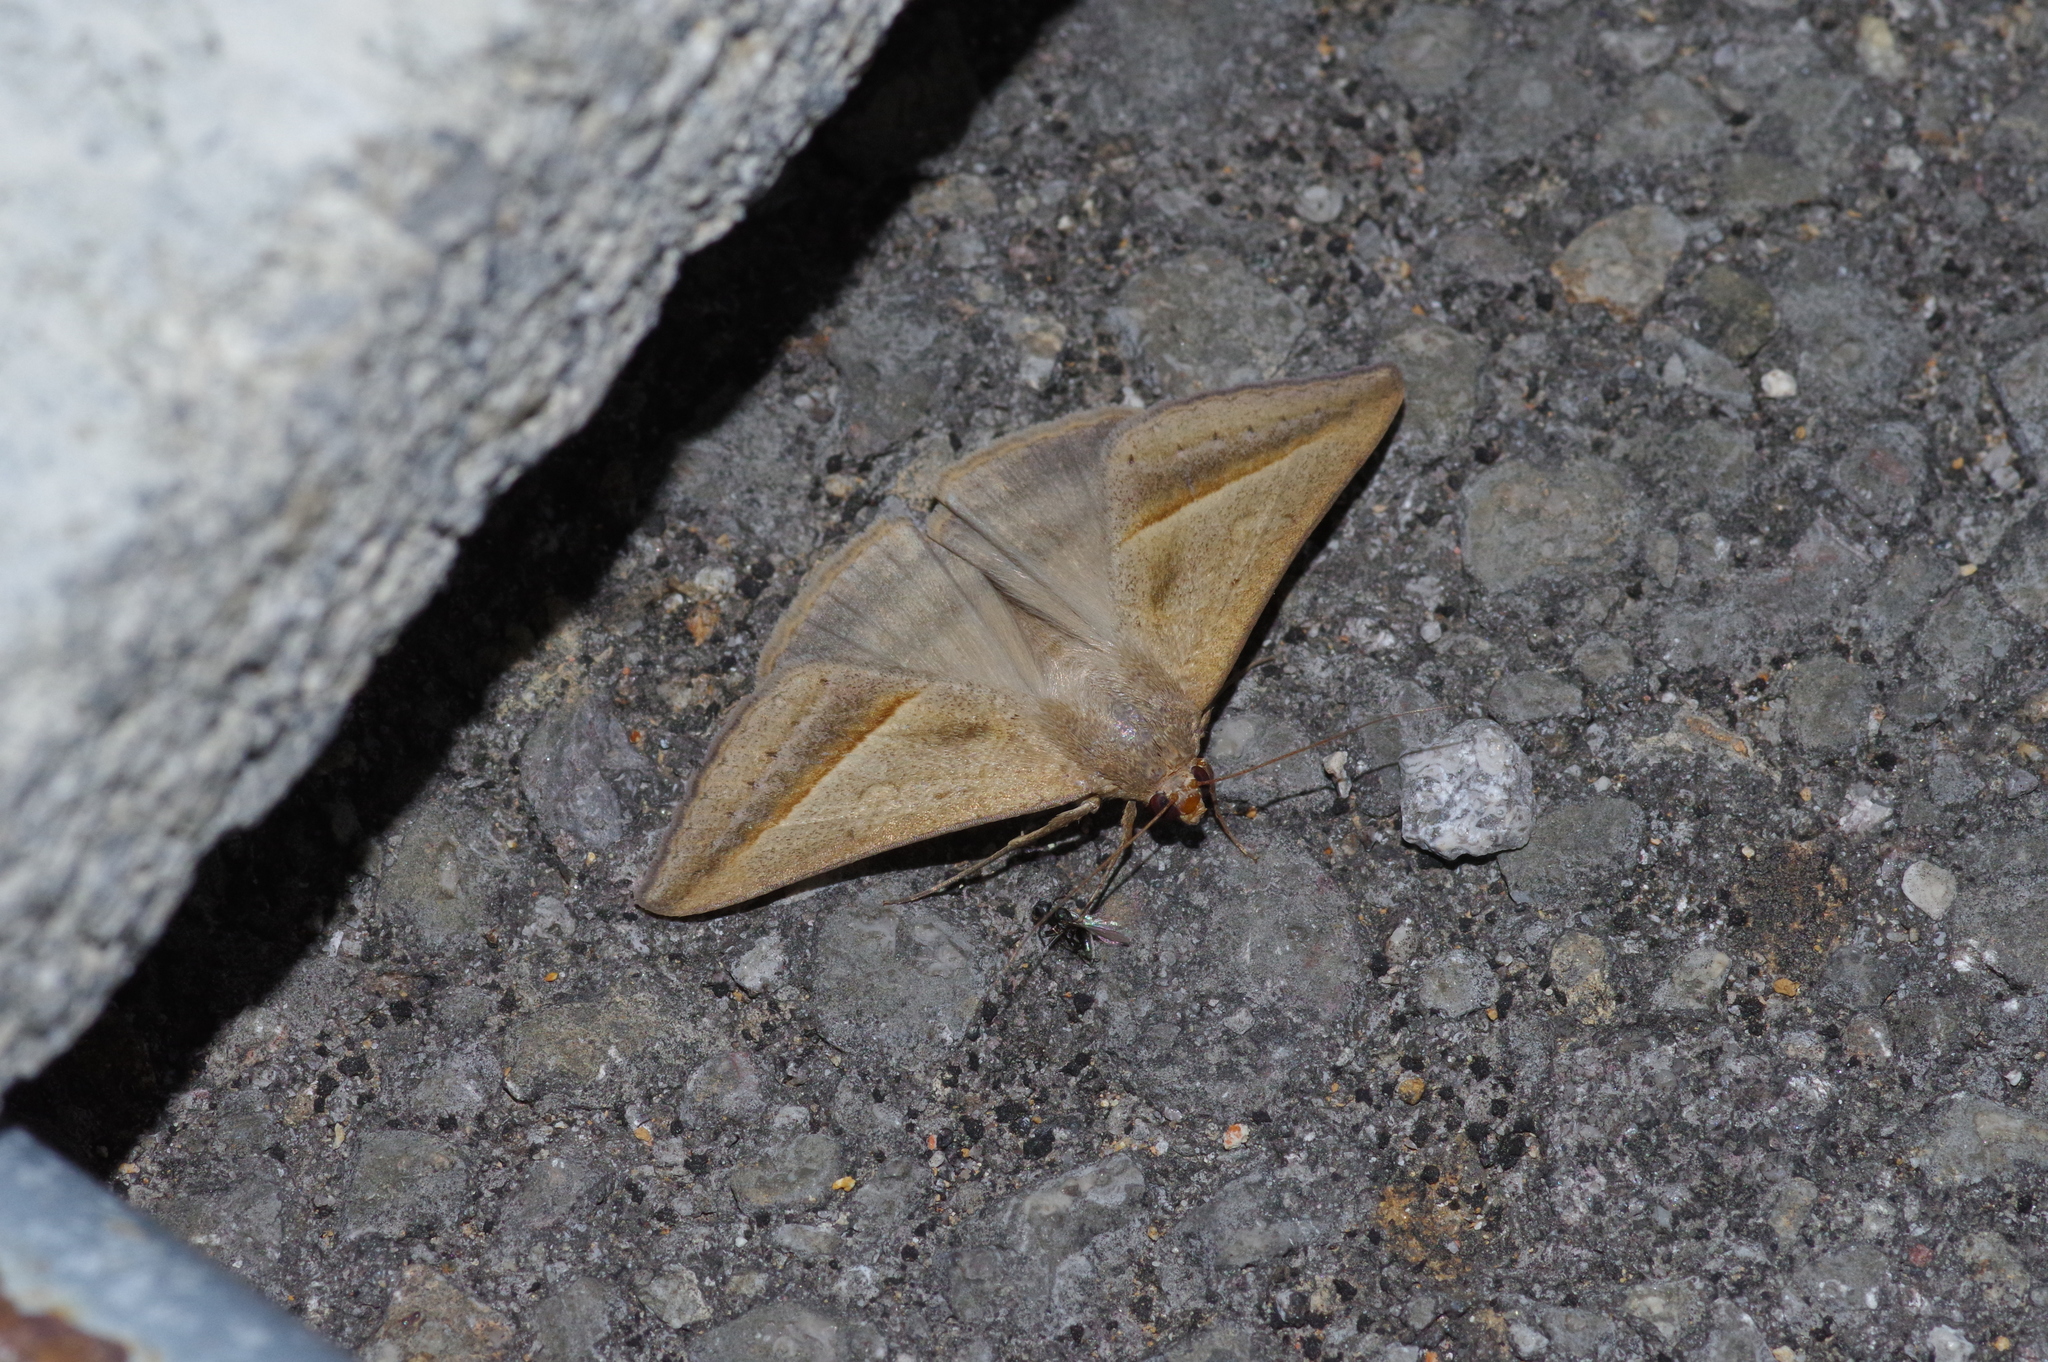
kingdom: Animalia
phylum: Arthropoda
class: Insecta
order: Lepidoptera
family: Erebidae
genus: Mocis
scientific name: Mocis frugalis
